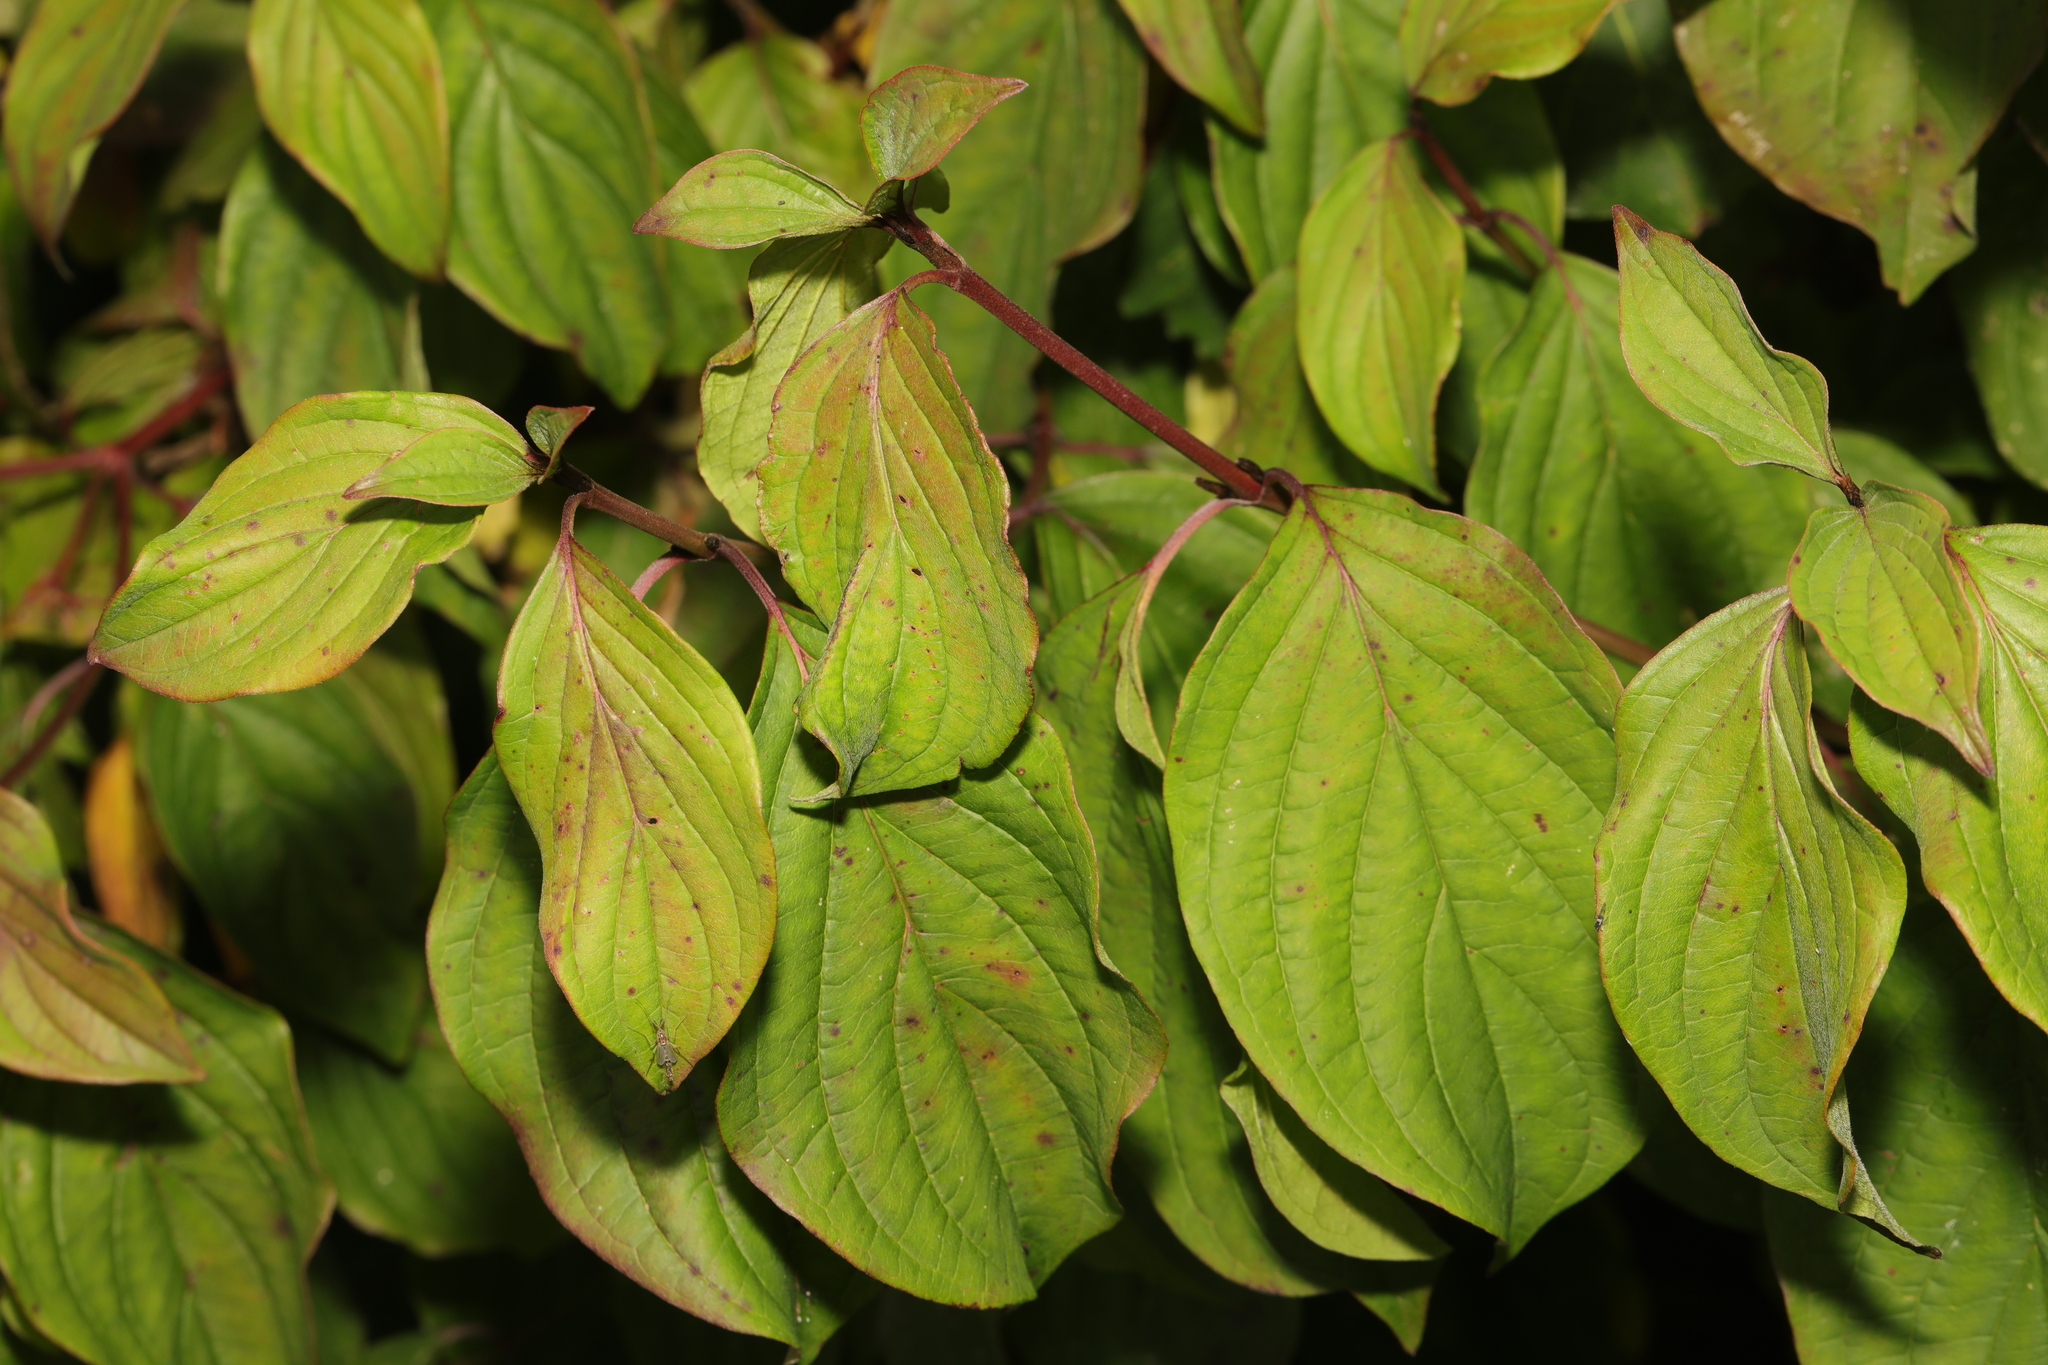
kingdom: Plantae
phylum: Tracheophyta
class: Magnoliopsida
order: Cornales
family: Cornaceae
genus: Cornus
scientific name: Cornus sanguinea
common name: Dogwood
